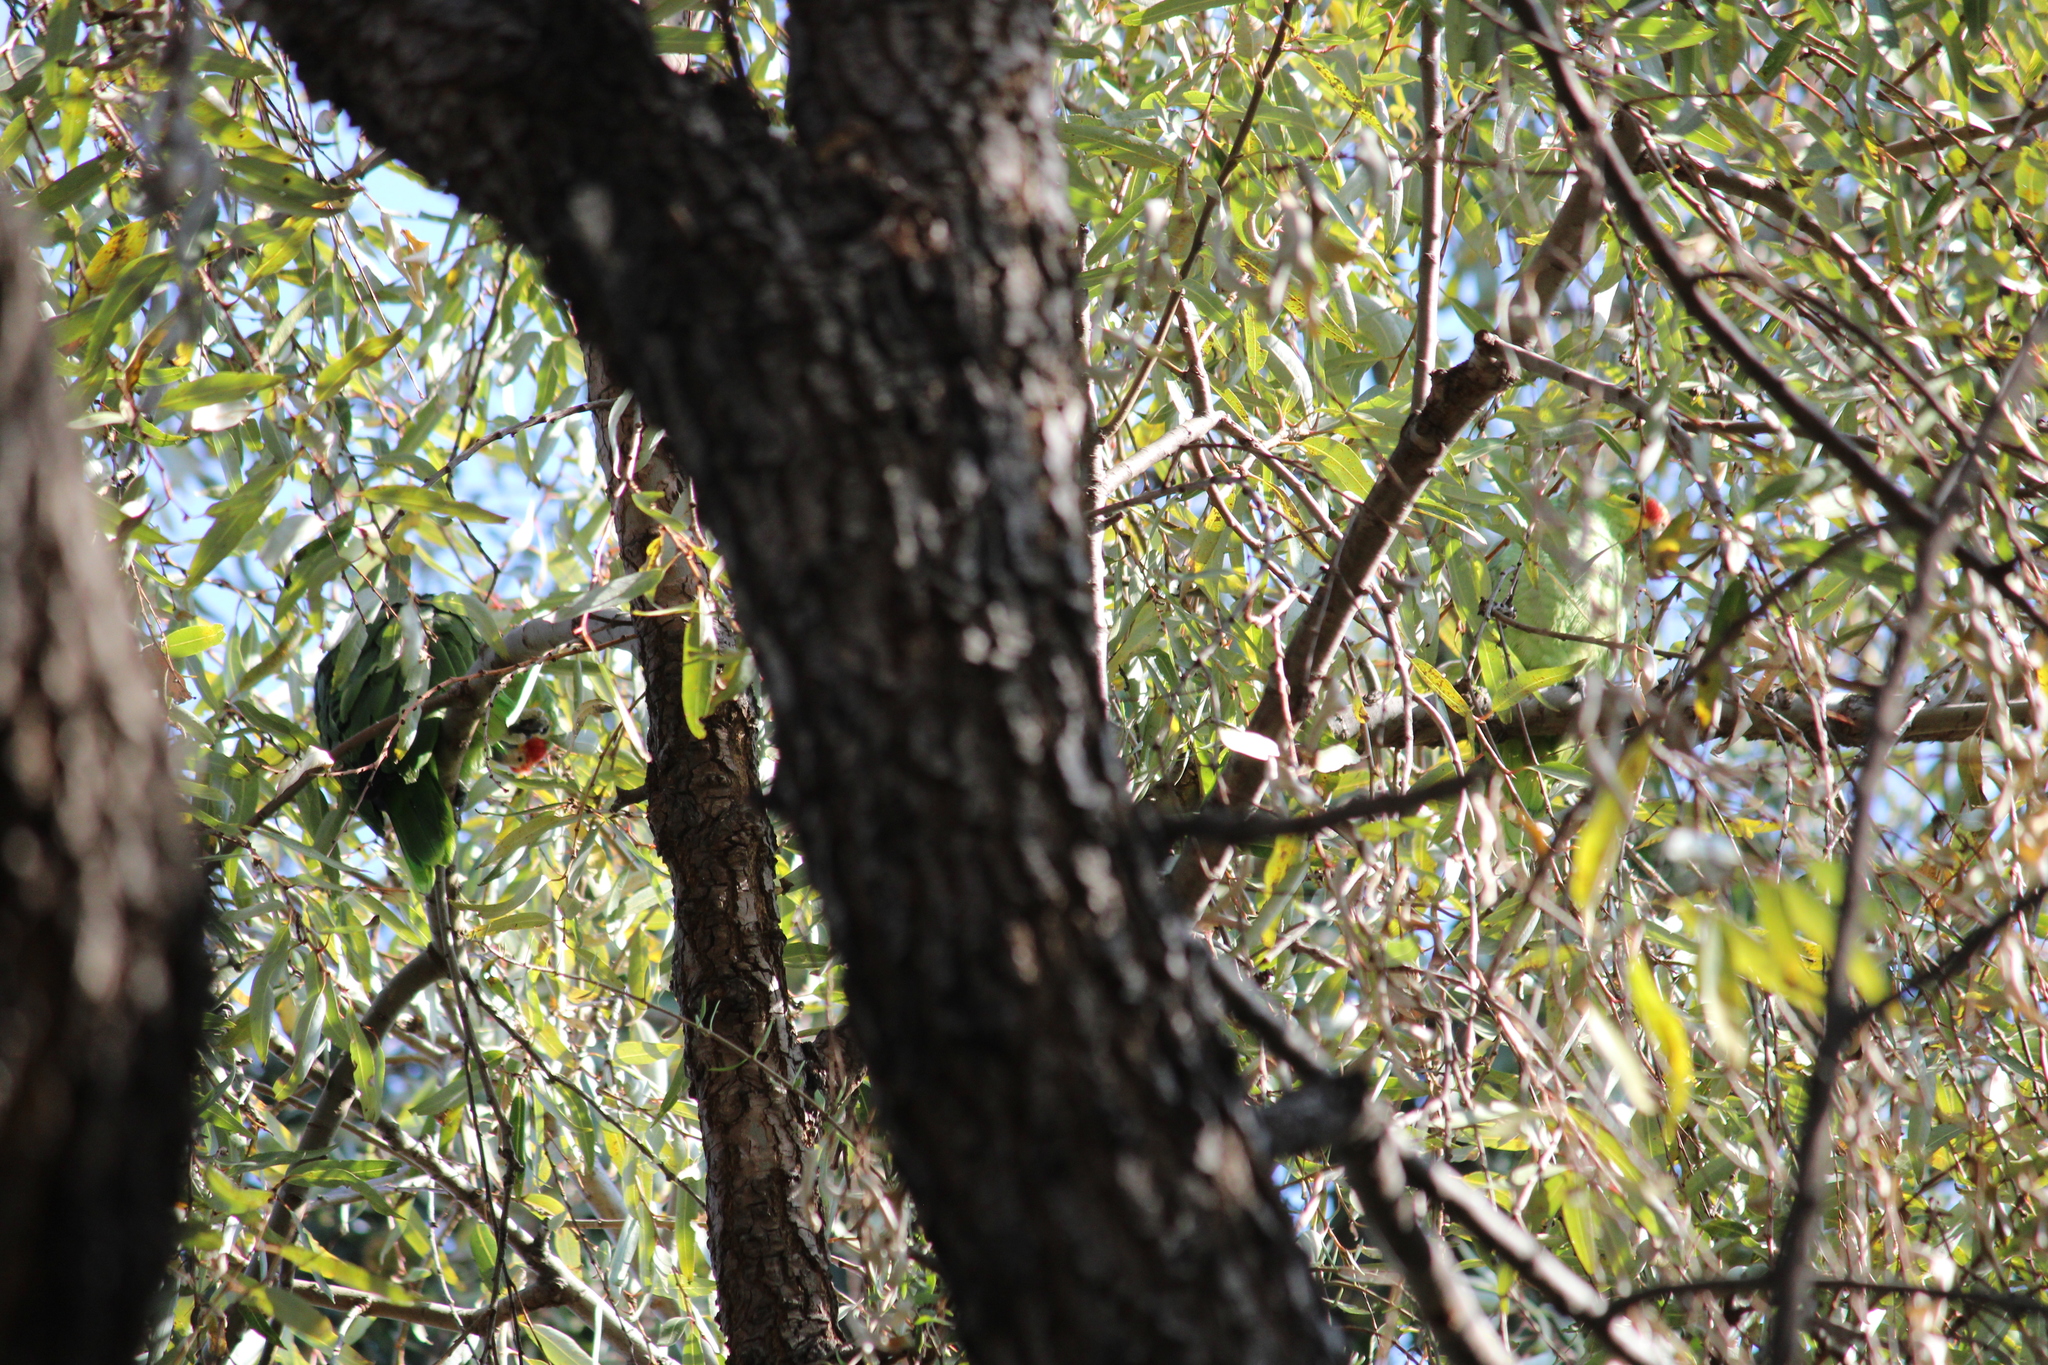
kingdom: Animalia
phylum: Chordata
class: Aves
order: Psittaciformes
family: Psittacidae
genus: Amazona
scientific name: Amazona autumnalis
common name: Red-lored amazon
